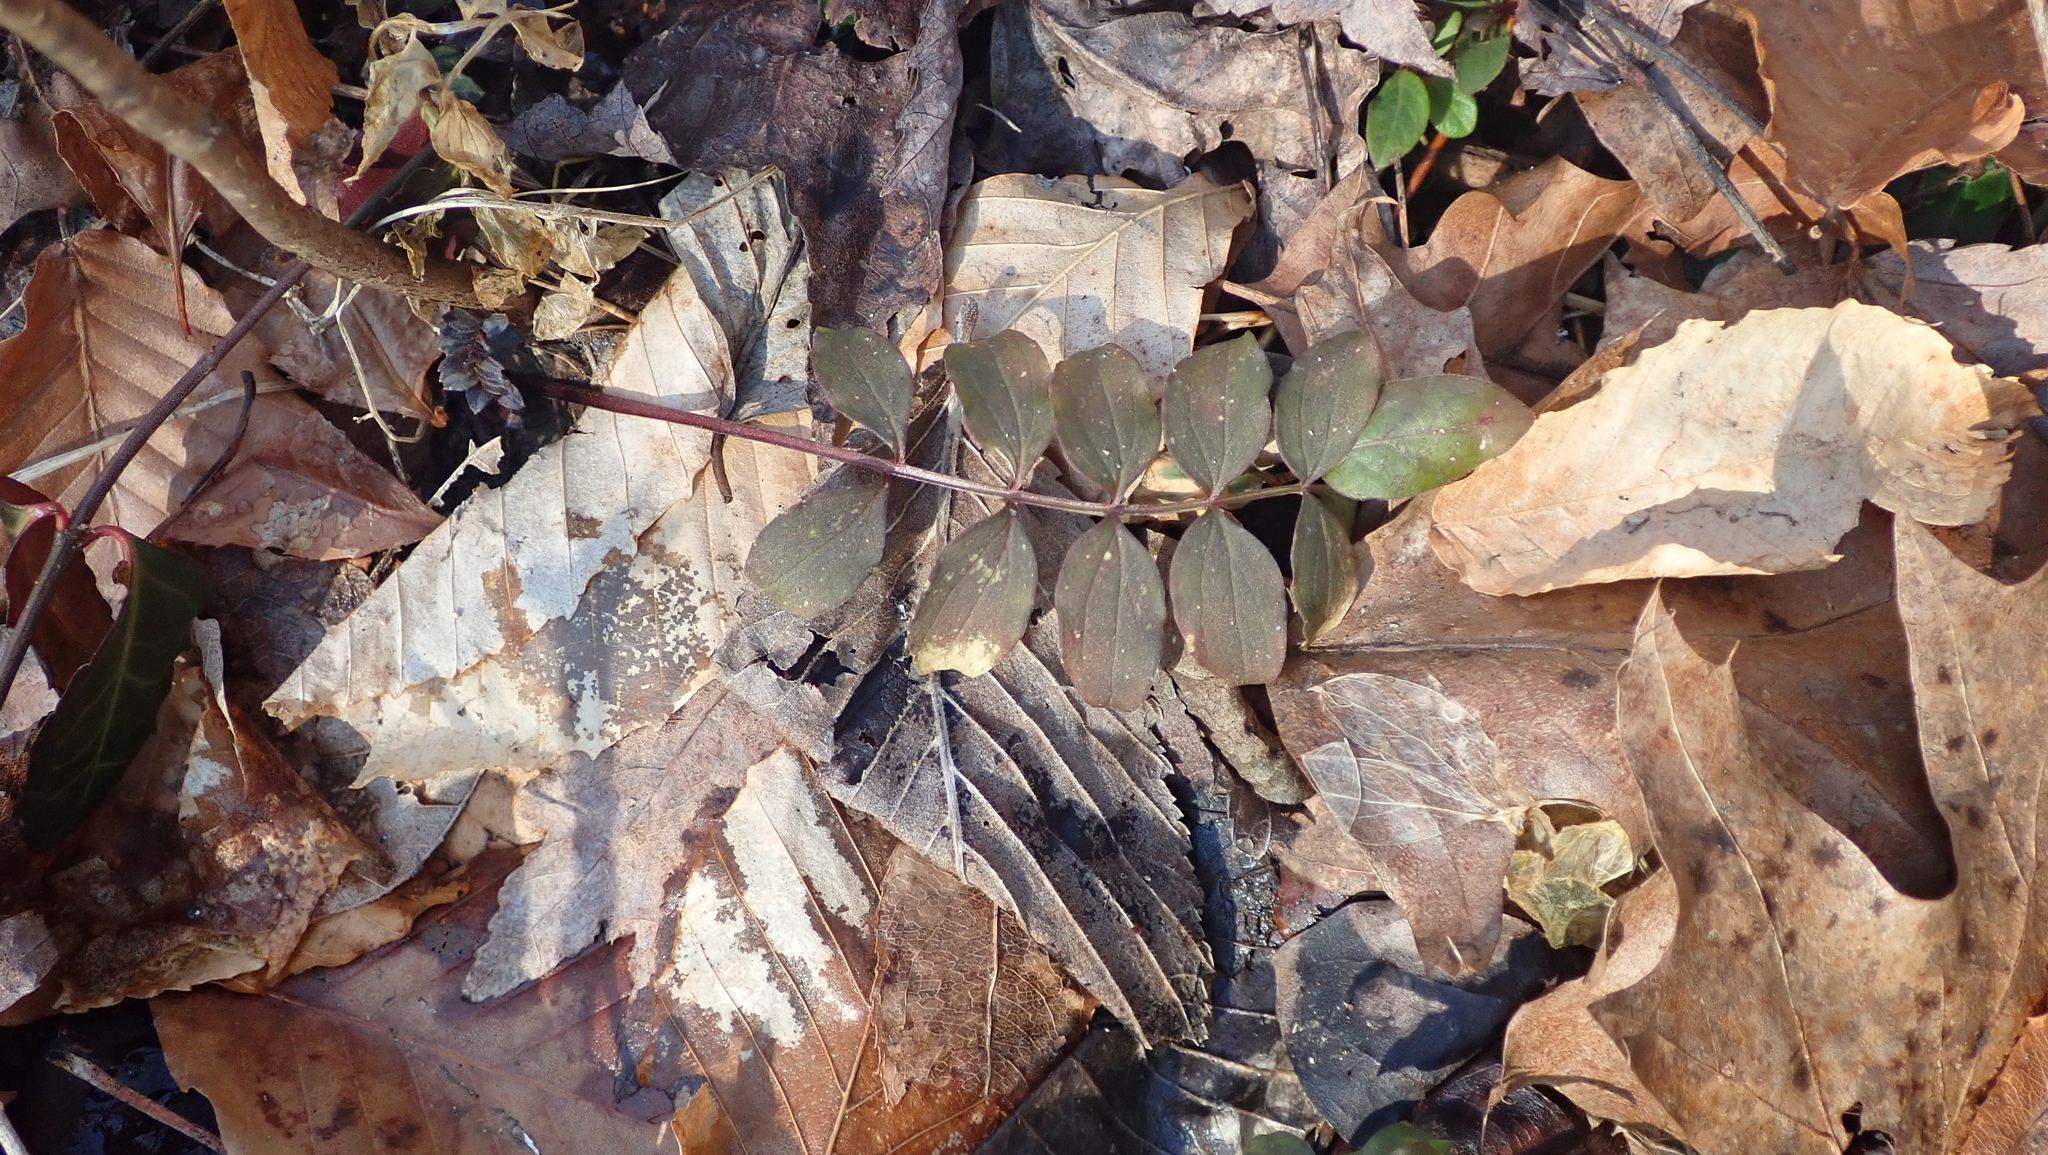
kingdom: Plantae
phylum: Tracheophyta
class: Magnoliopsida
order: Ericales
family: Polemoniaceae
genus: Polemonium
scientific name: Polemonium reptans
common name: Creeping jacob's-ladder
